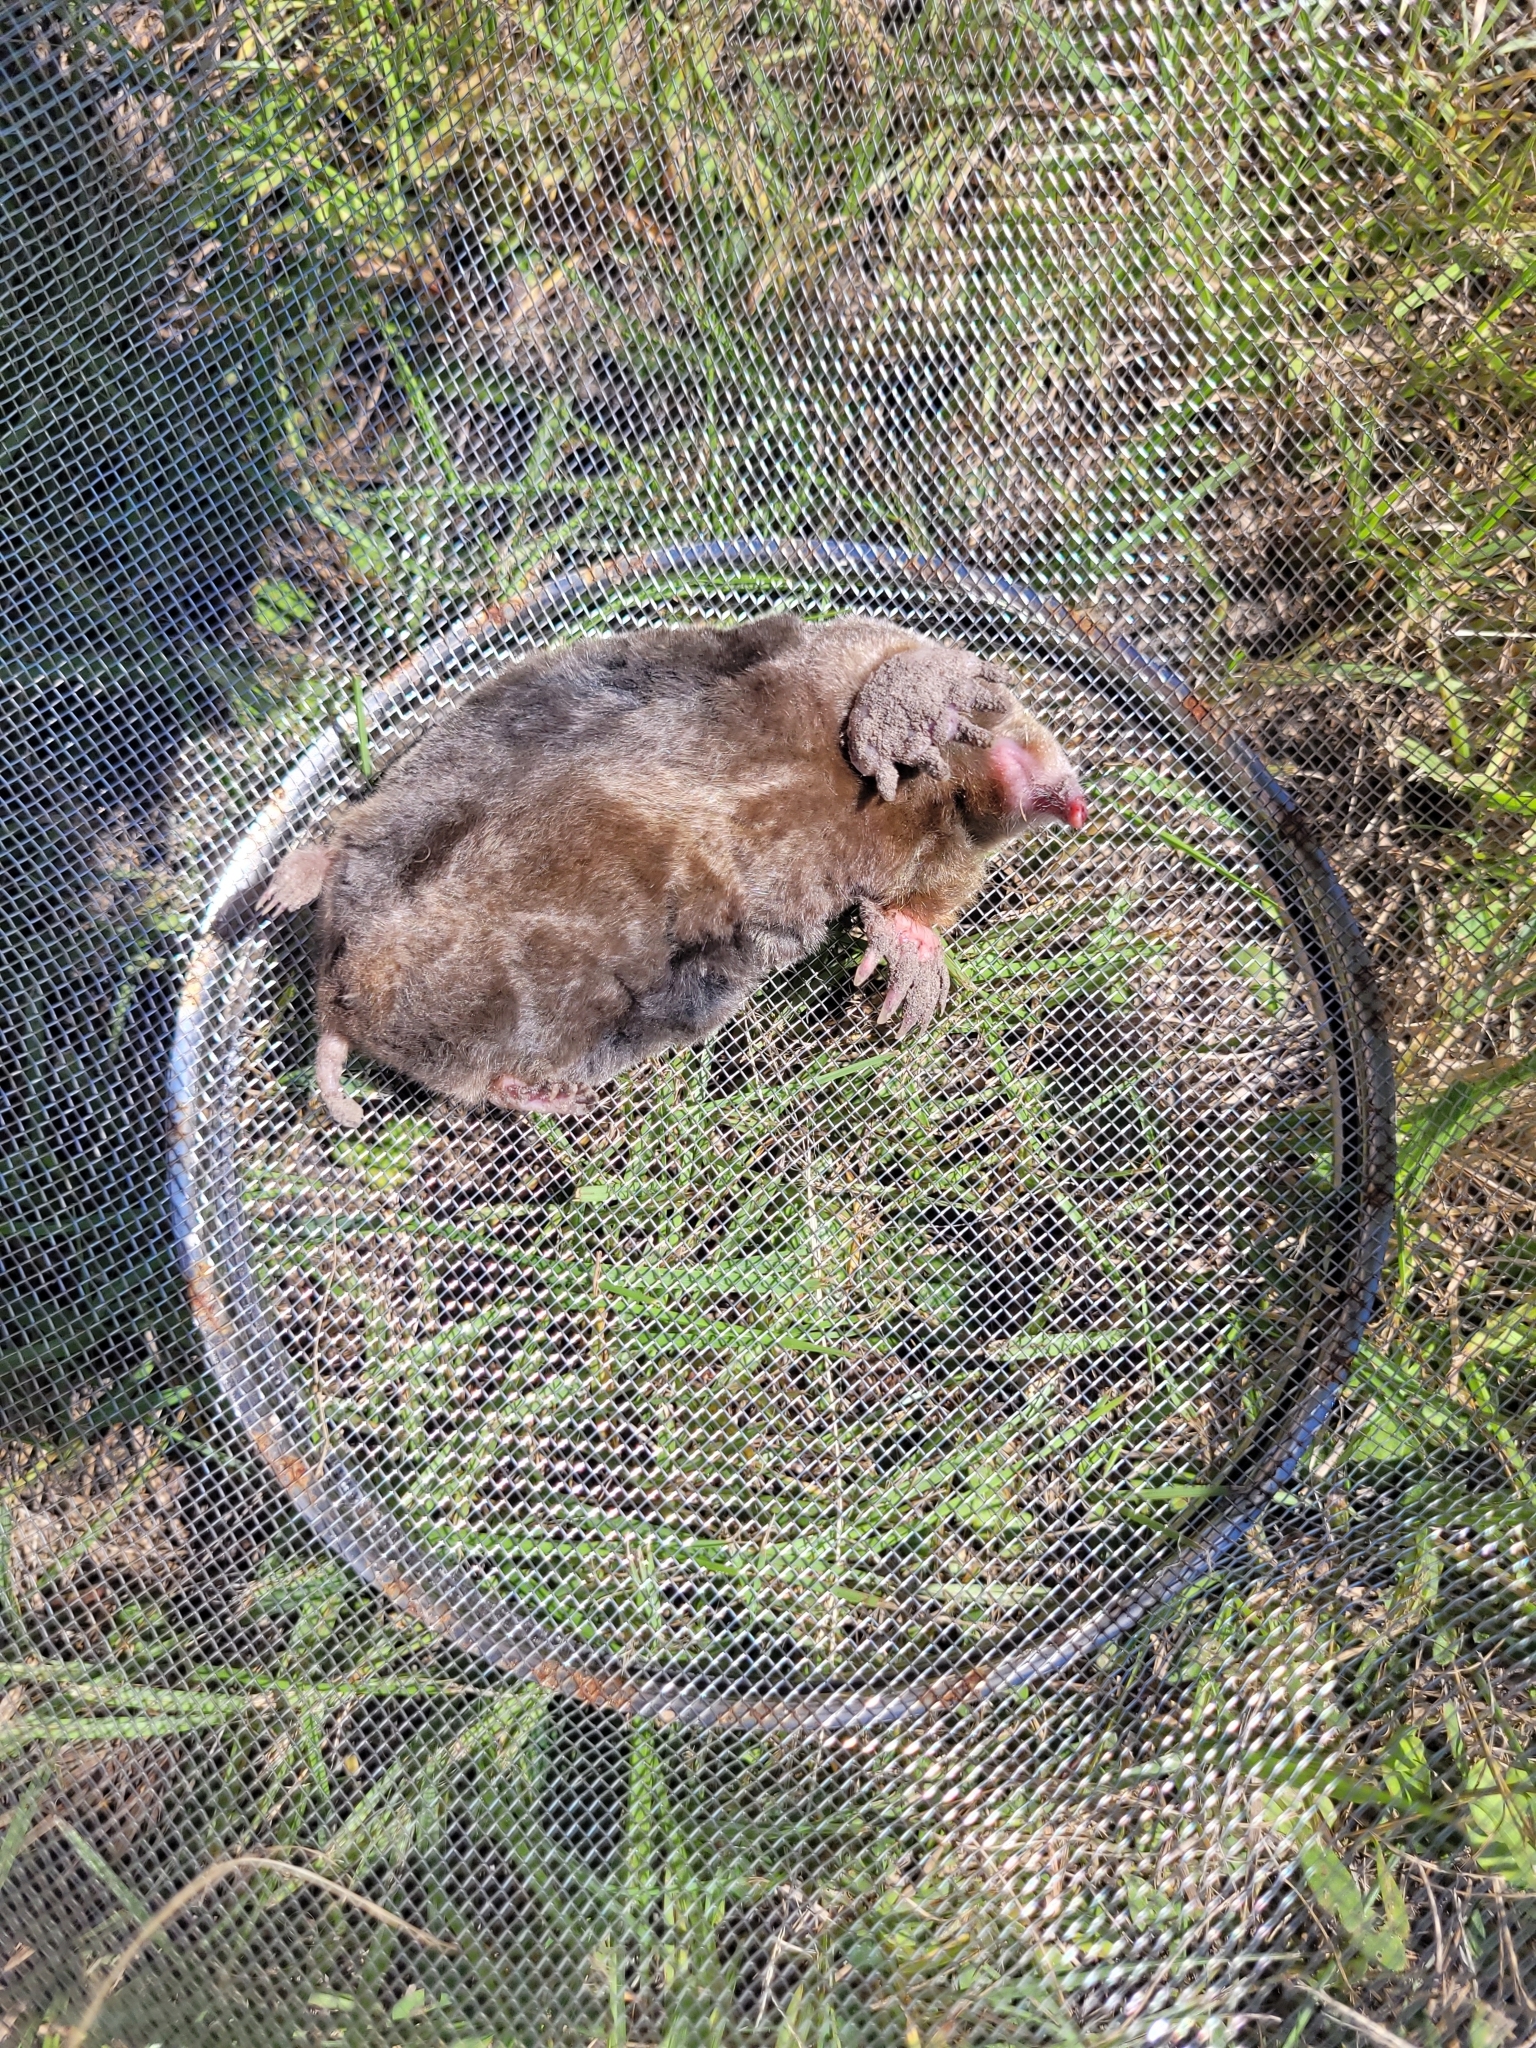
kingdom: Animalia
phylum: Chordata
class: Mammalia
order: Soricomorpha
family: Talpidae
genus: Scalopus
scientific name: Scalopus aquaticus
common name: Eastern mole
